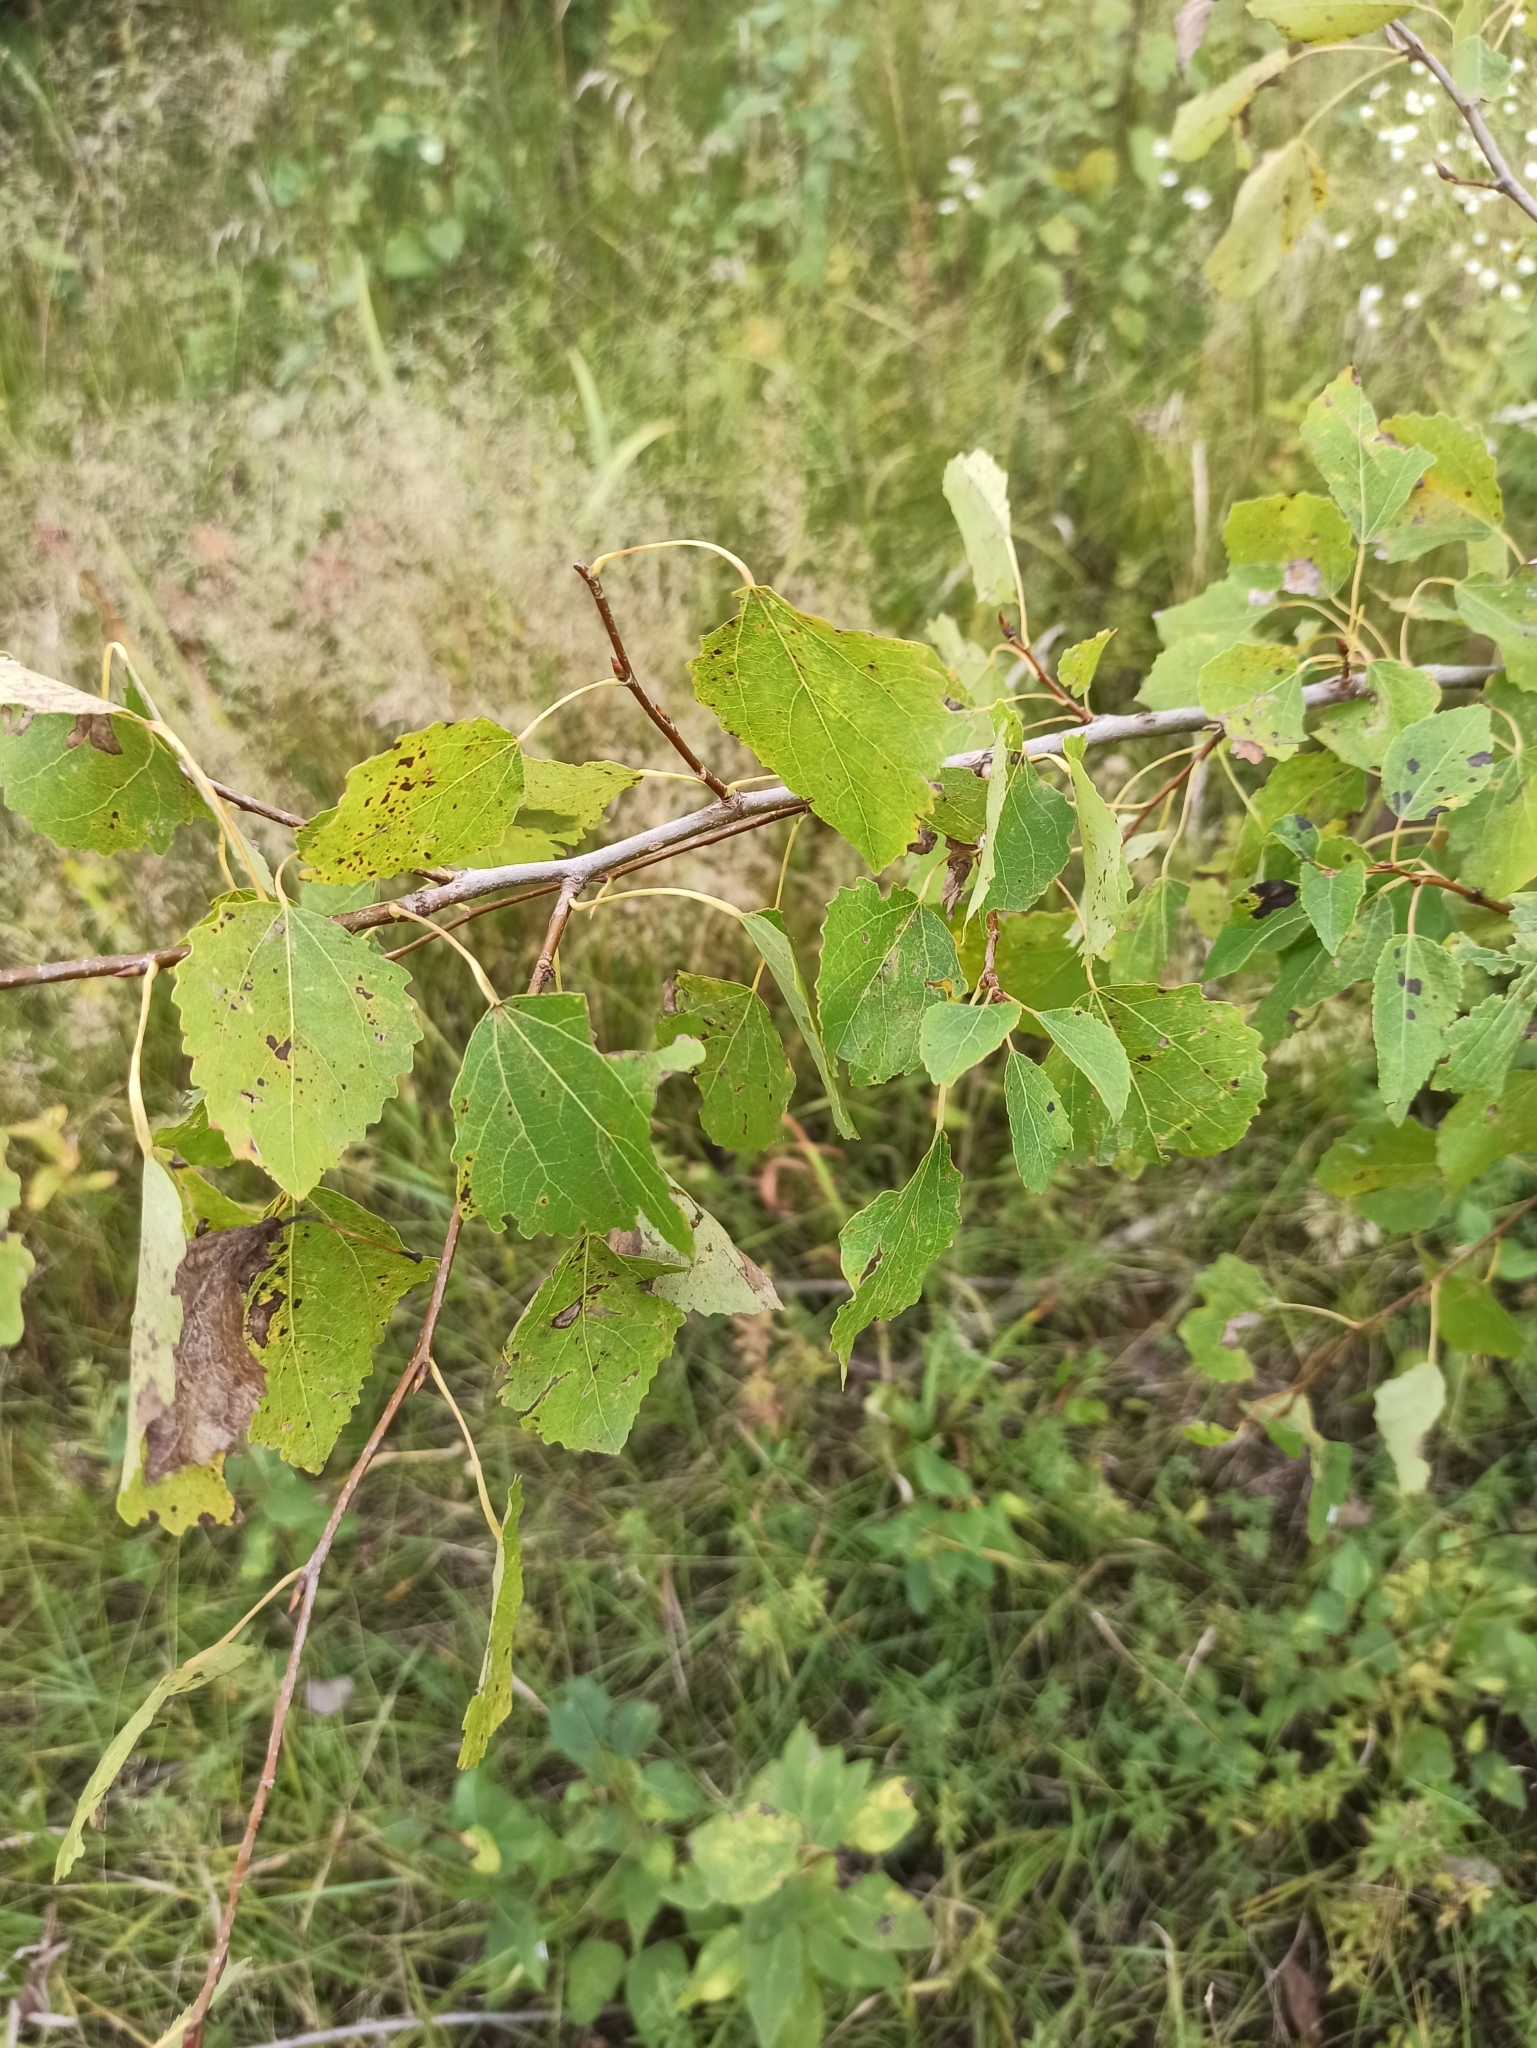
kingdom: Plantae
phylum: Tracheophyta
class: Magnoliopsida
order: Malpighiales
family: Salicaceae
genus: Populus
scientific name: Populus tremula
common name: European aspen
